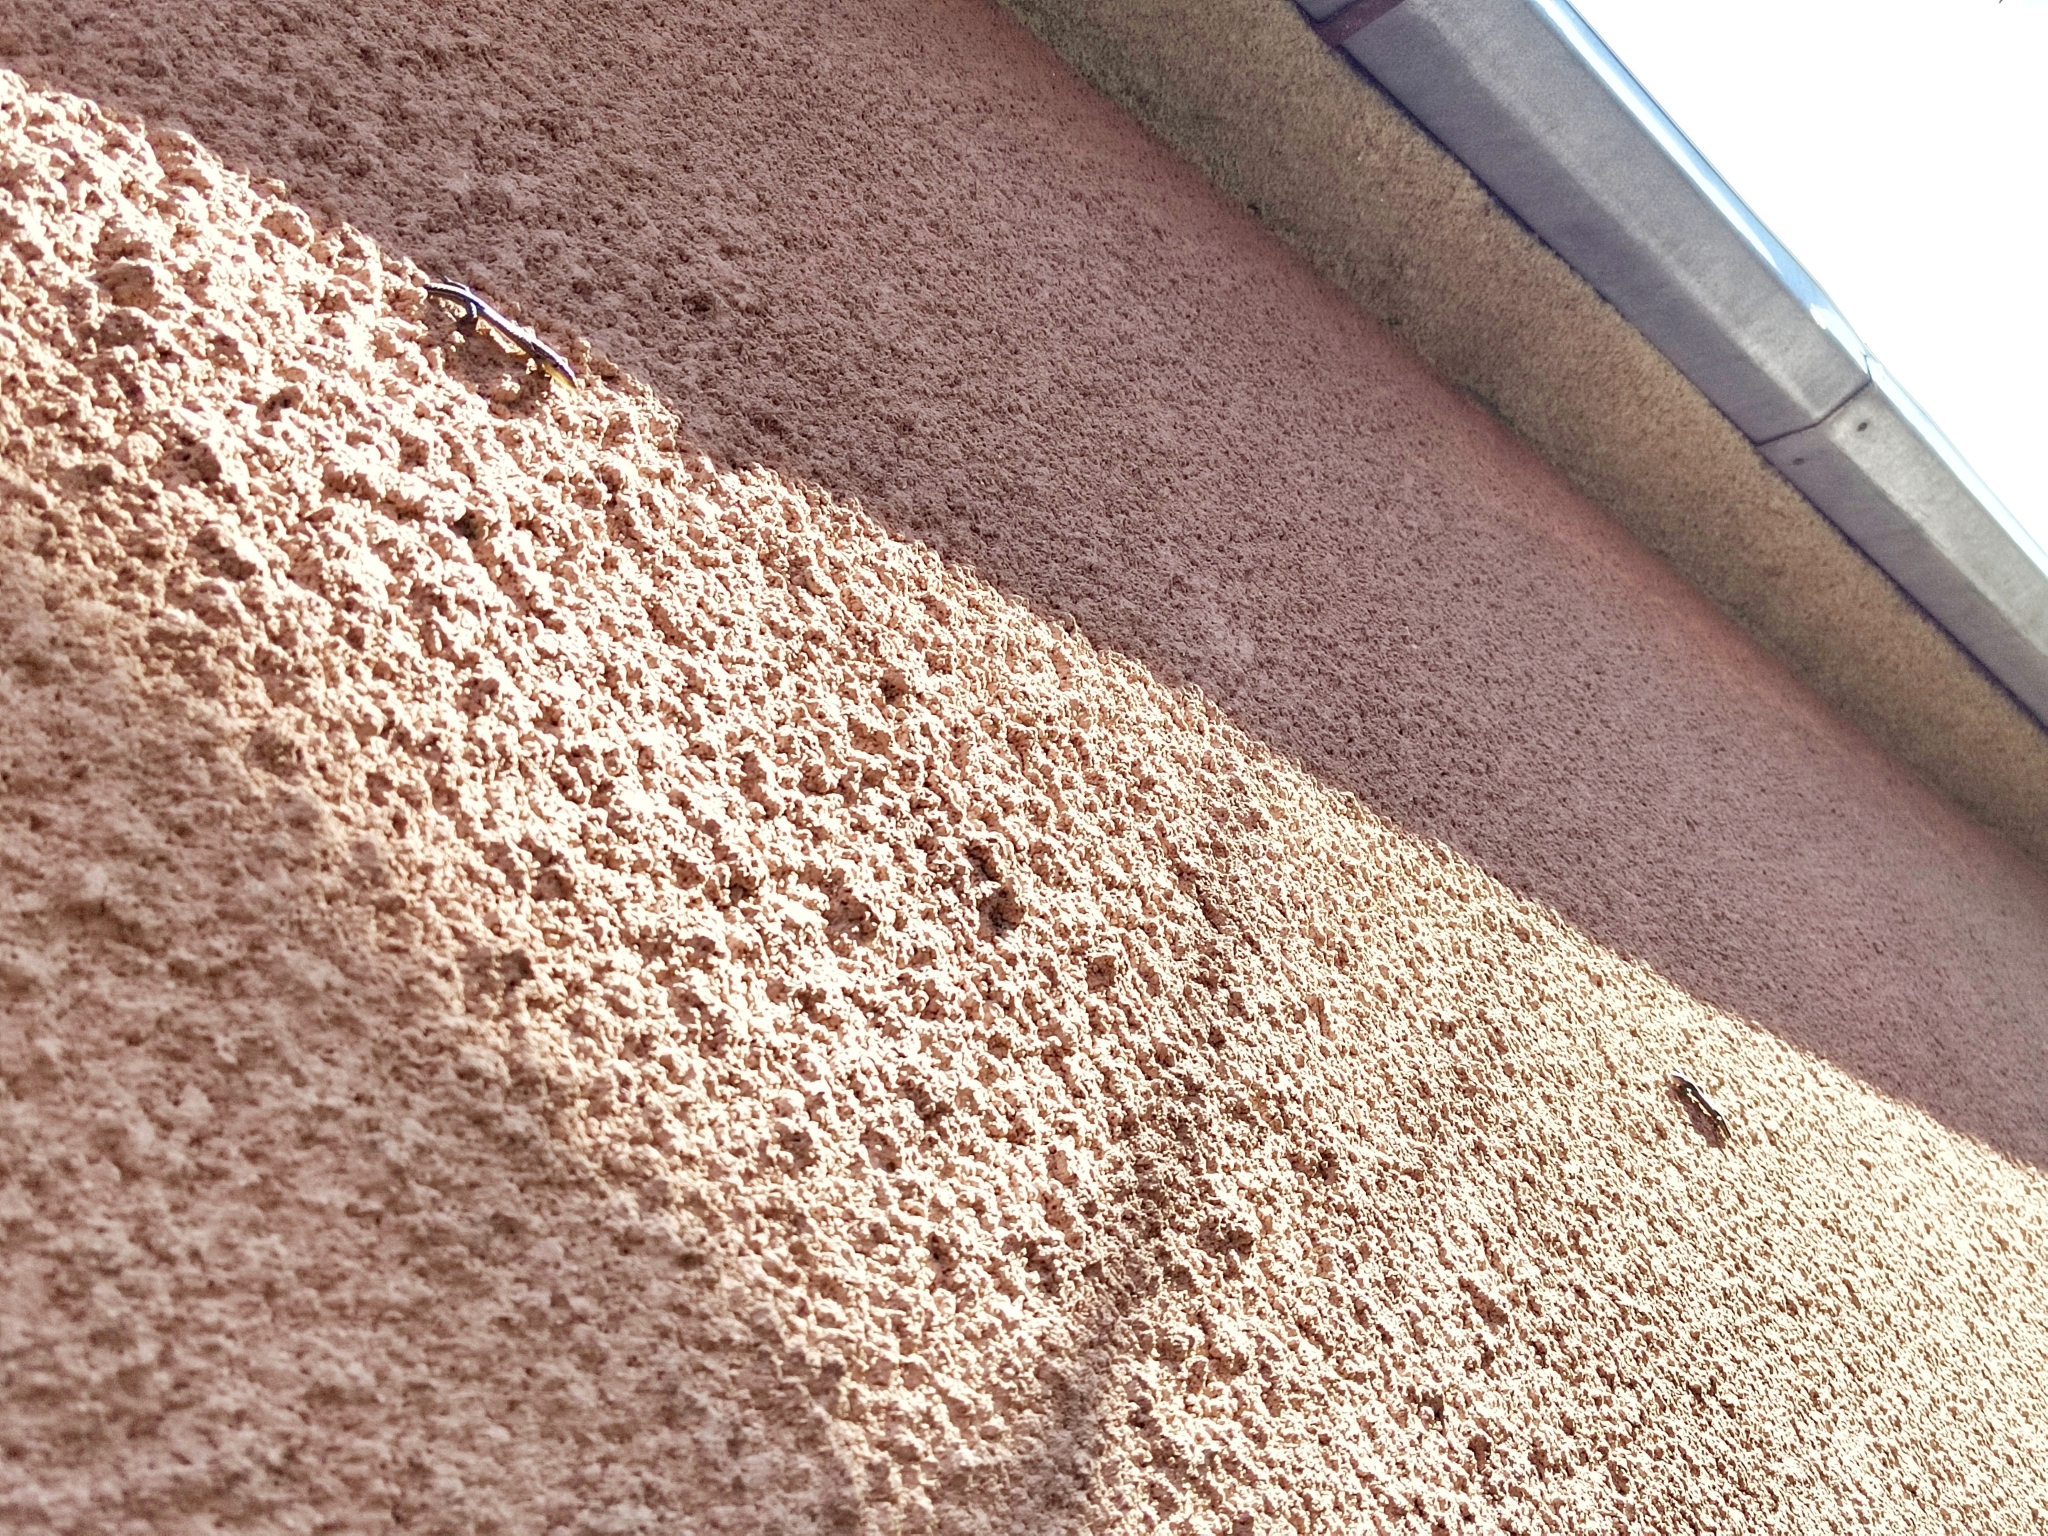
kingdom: Animalia
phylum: Chordata
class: Squamata
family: Lacertidae
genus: Darevskia
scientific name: Darevskia praticola
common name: Meadow lizard
